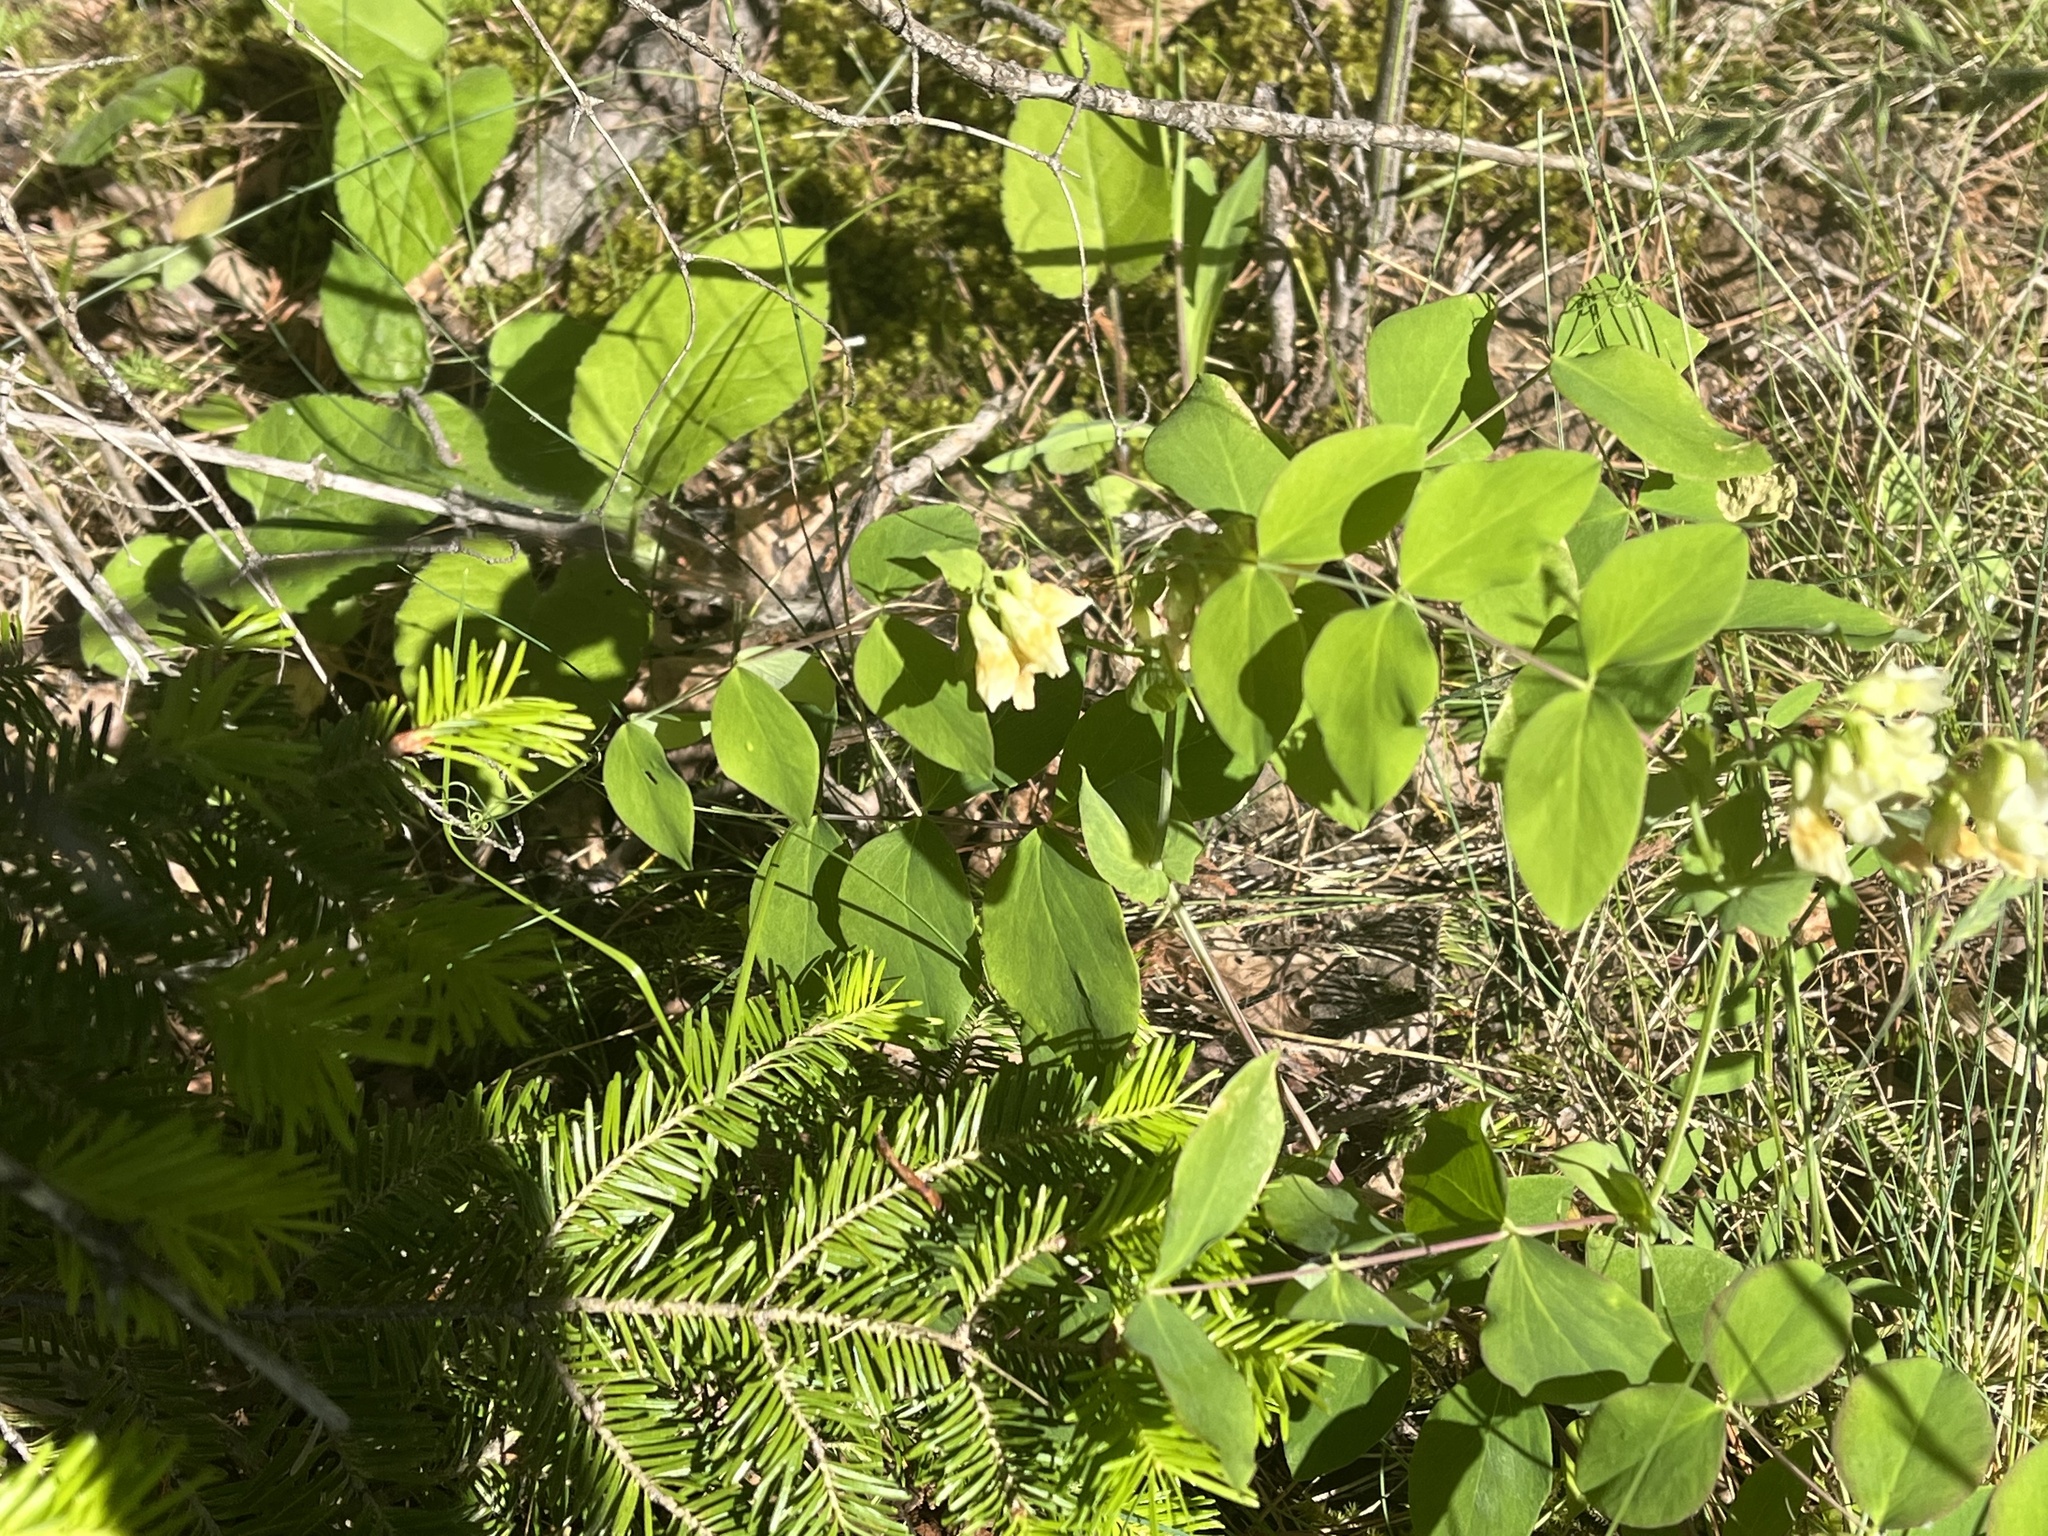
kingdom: Plantae
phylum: Tracheophyta
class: Magnoliopsida
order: Fabales
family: Fabaceae
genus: Lathyrus
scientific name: Lathyrus ochroleucus
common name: Pale vetchling
